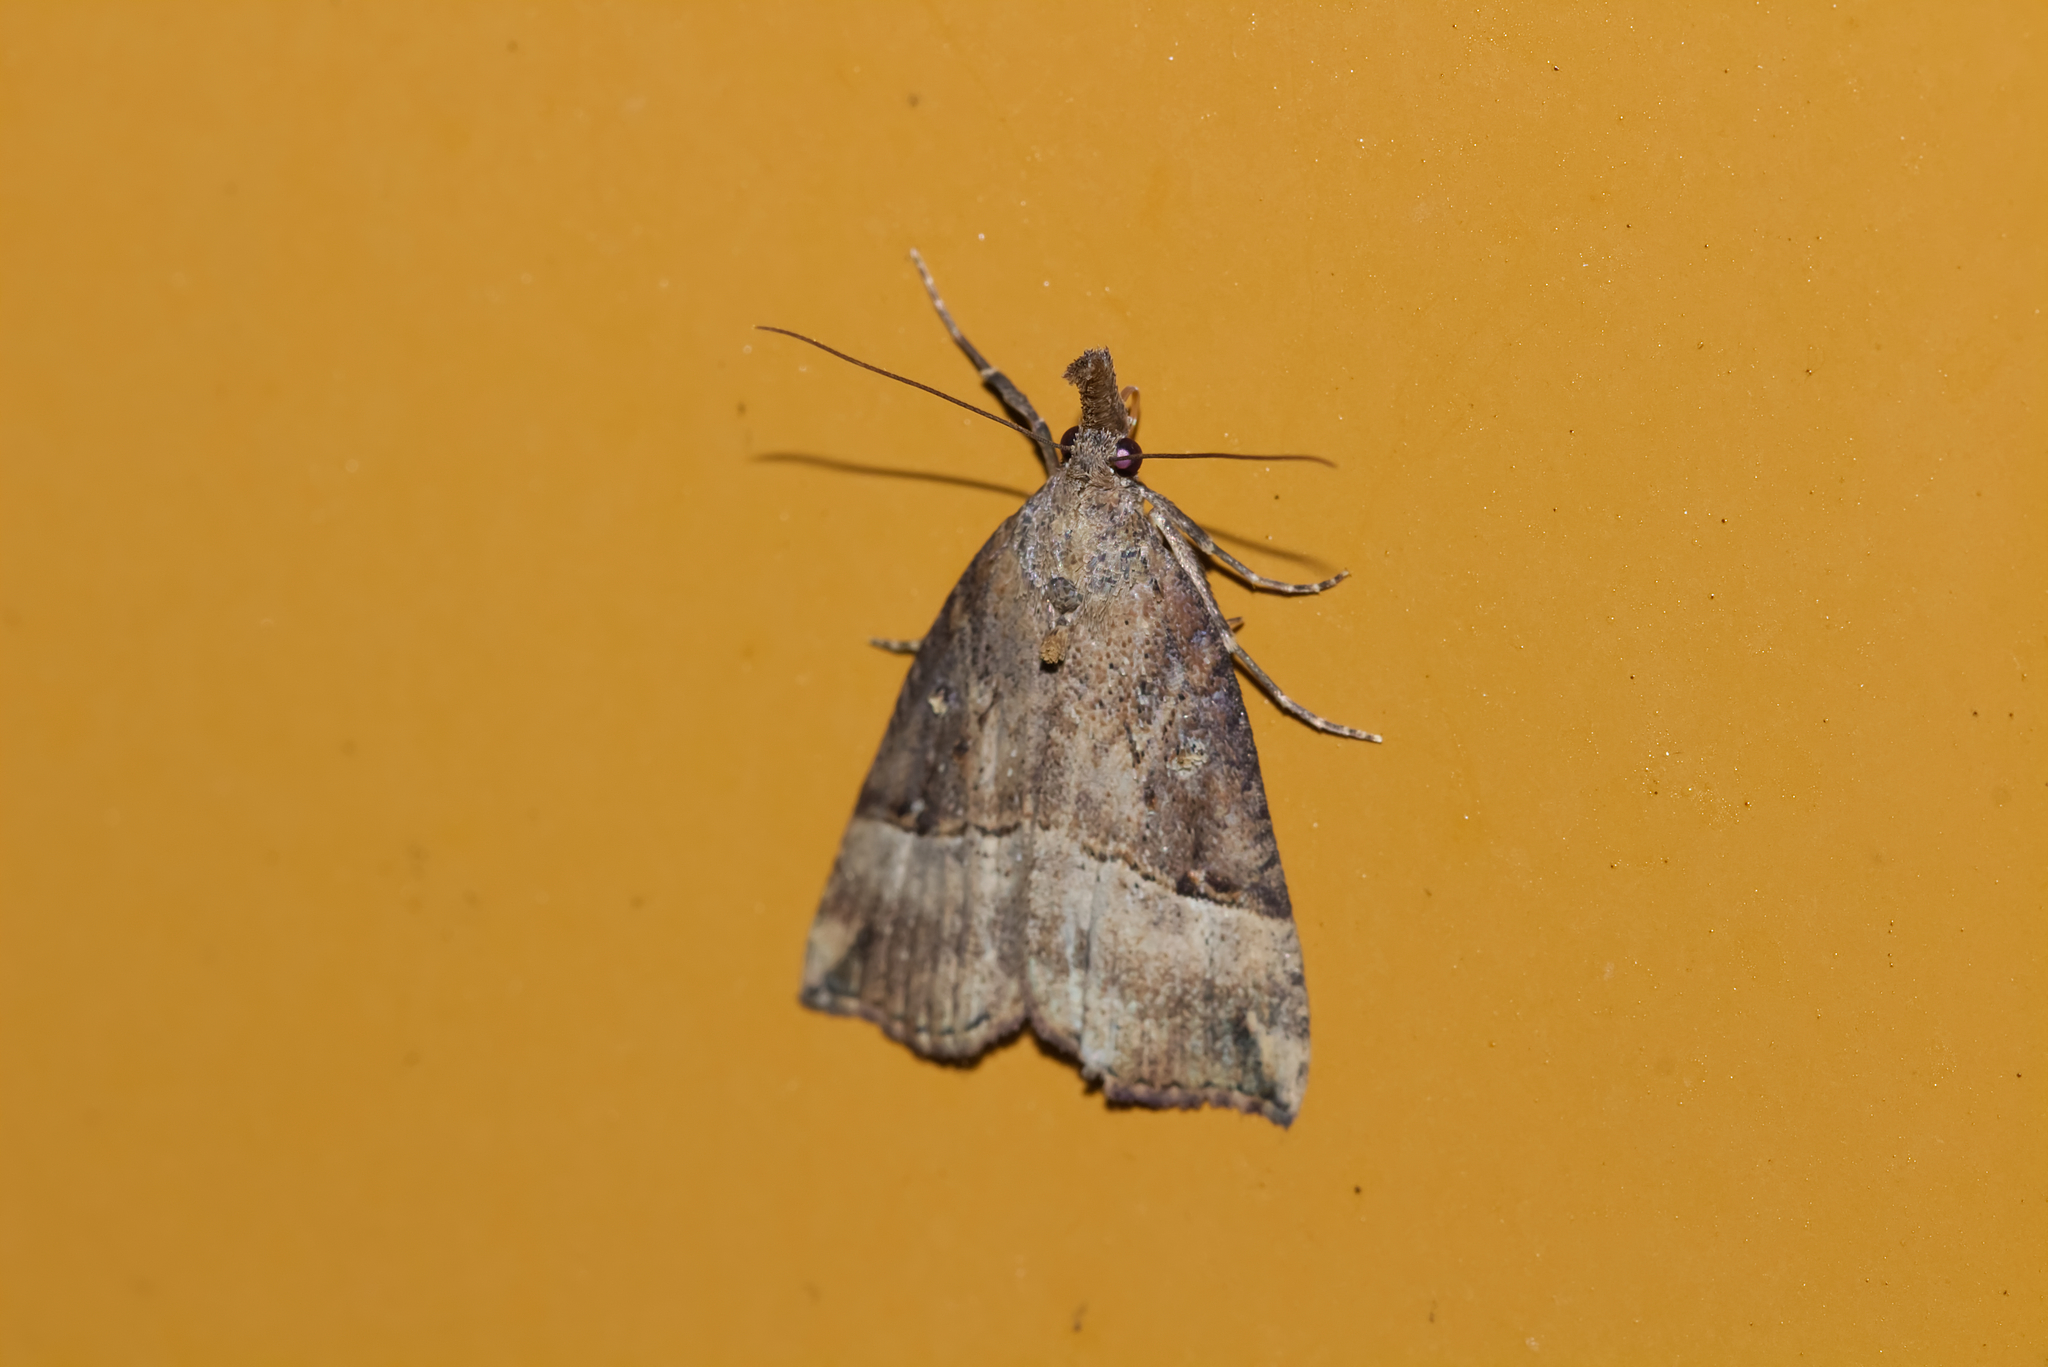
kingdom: Animalia
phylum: Arthropoda
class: Insecta
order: Lepidoptera
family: Erebidae
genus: Hypena
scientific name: Hypena rostralis
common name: Buttoned snout
